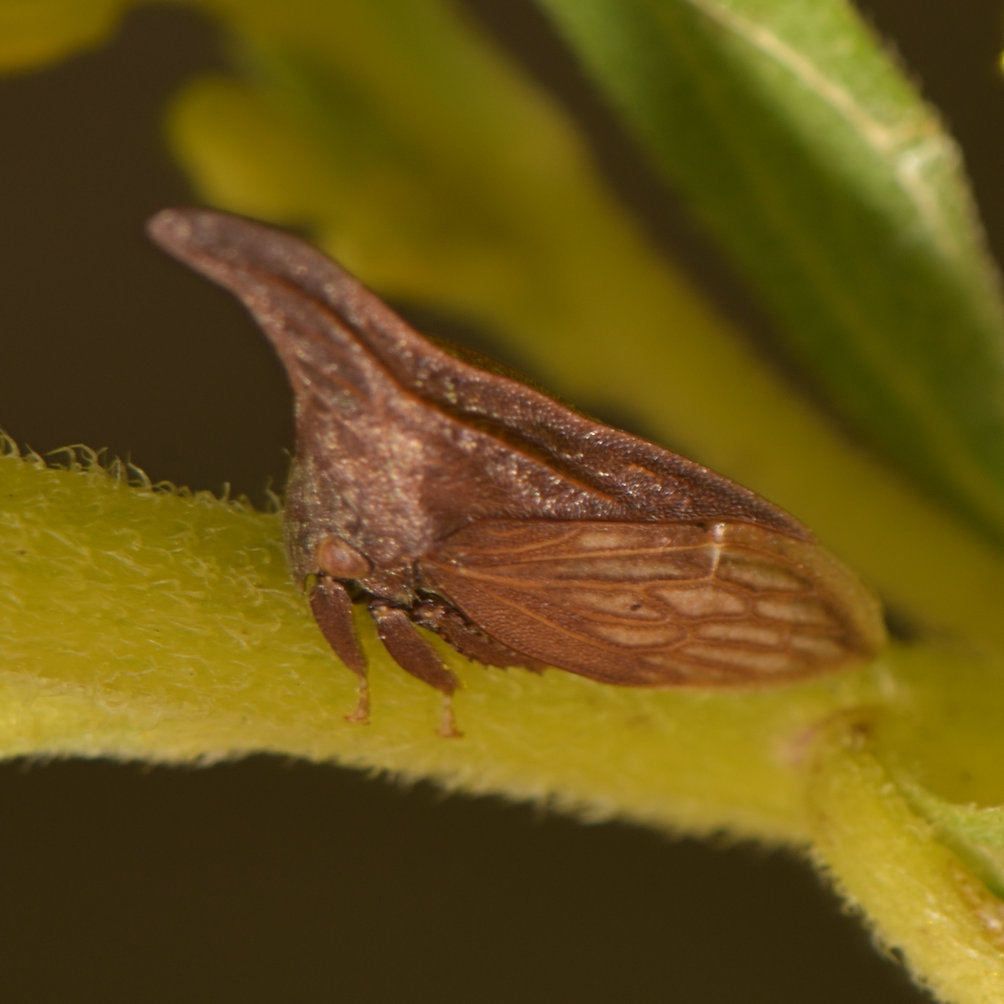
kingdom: Animalia
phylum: Arthropoda
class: Insecta
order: Hemiptera
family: Membracidae
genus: Enchenopa
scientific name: Enchenopa latipes
